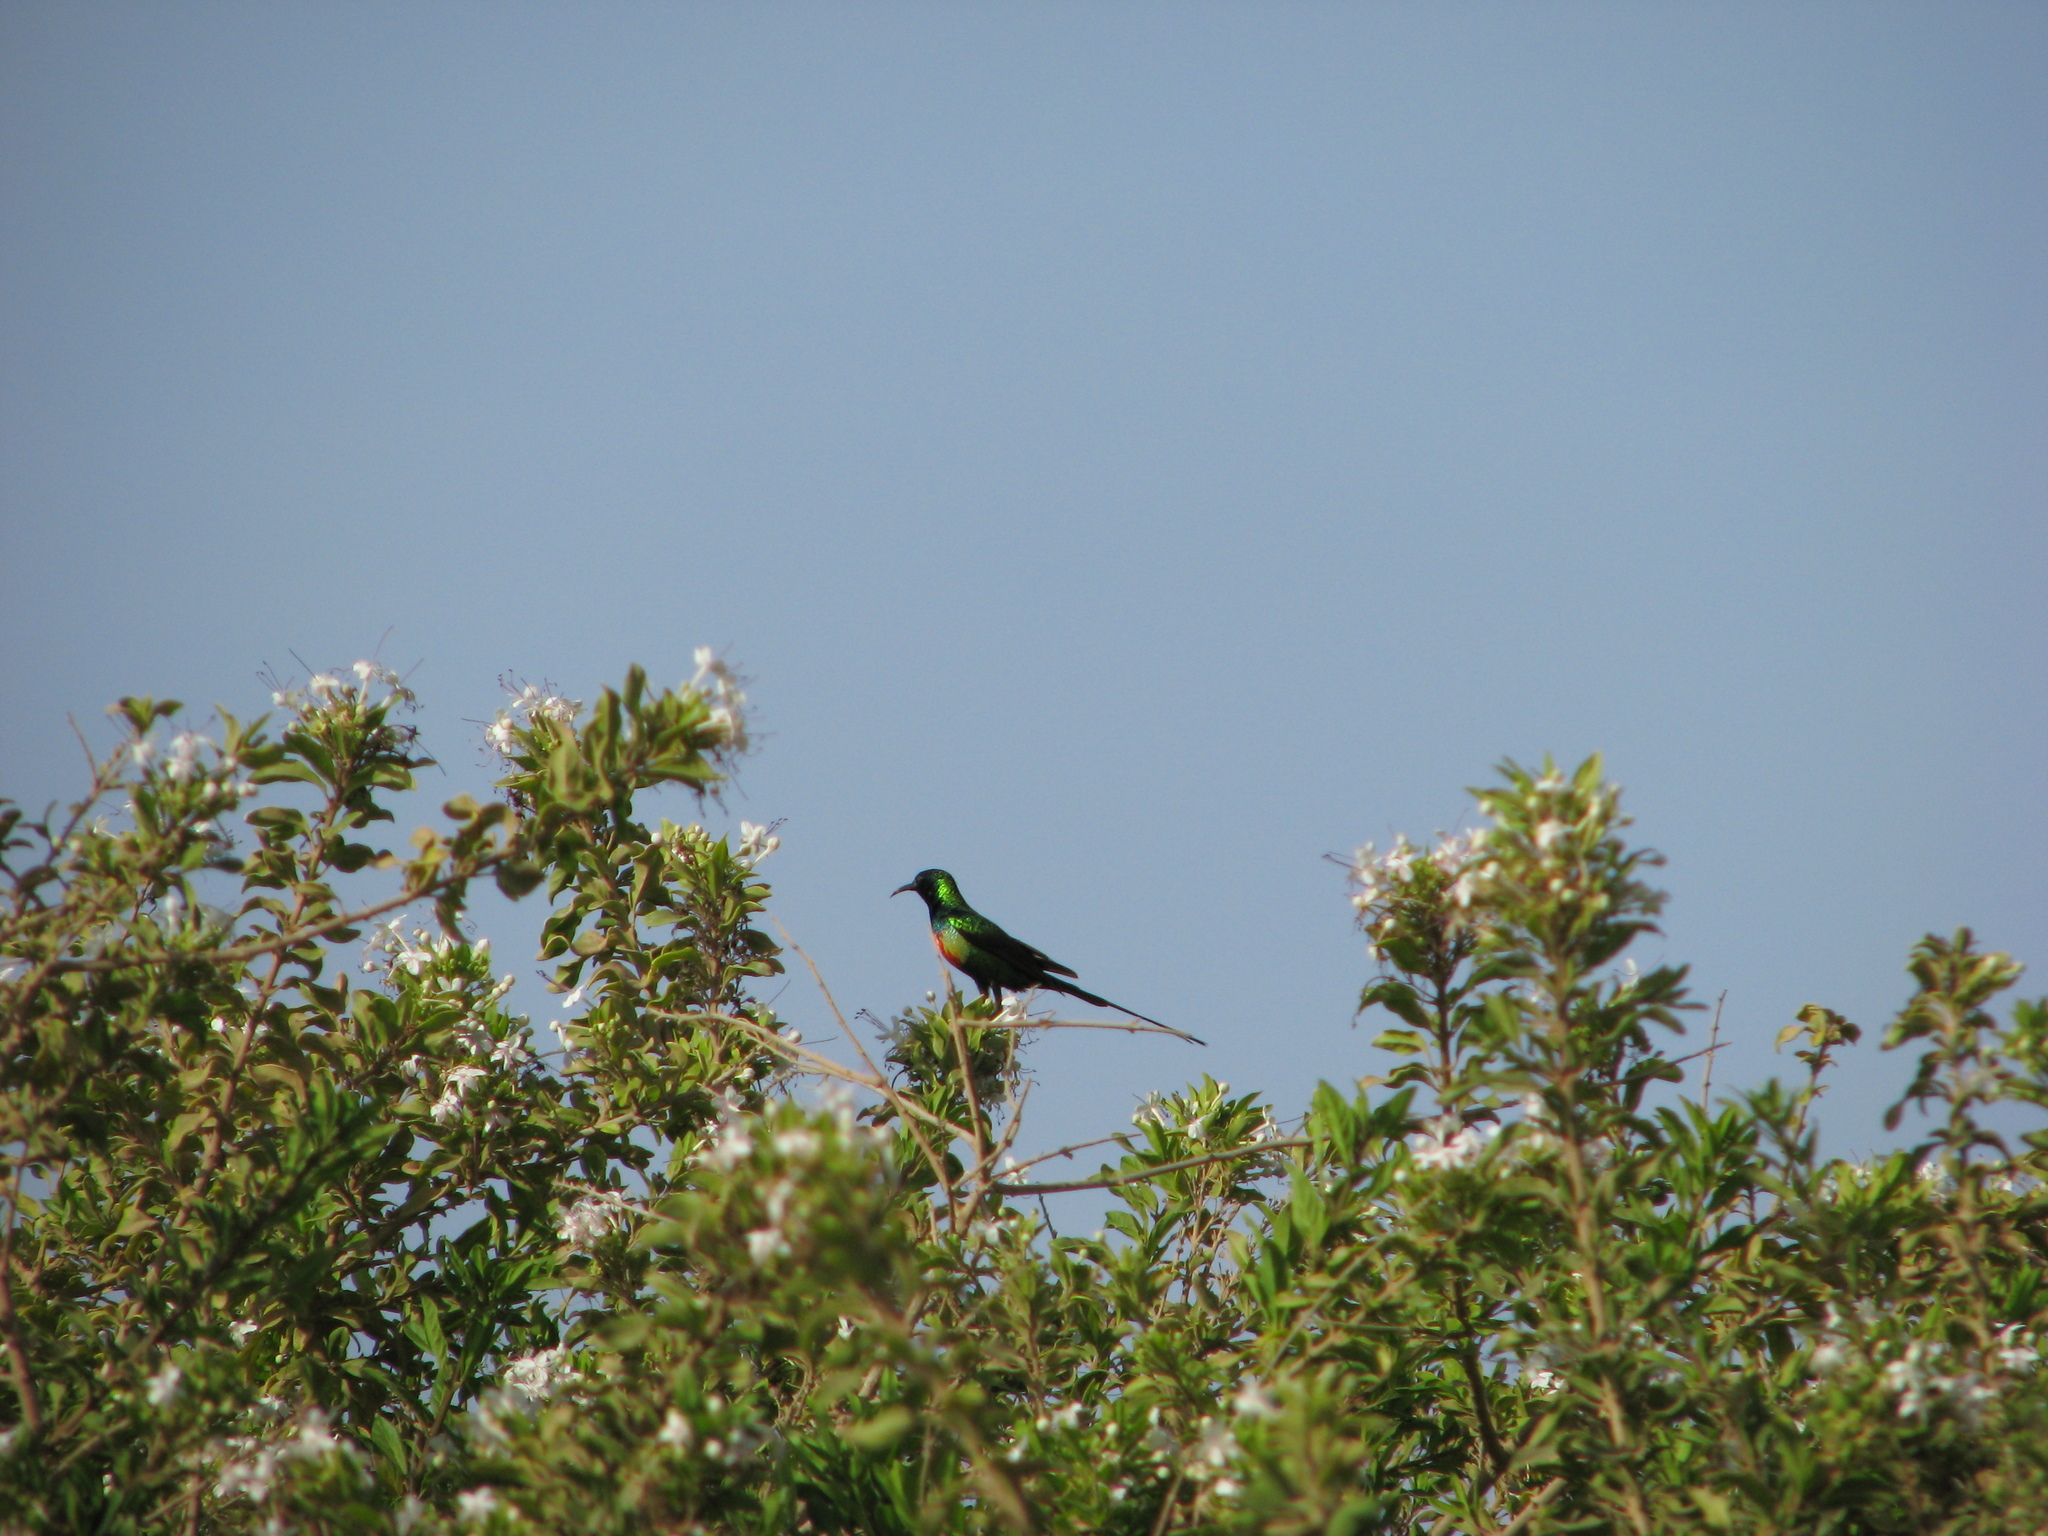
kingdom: Animalia
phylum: Chordata
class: Aves
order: Passeriformes
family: Nectariniidae
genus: Cinnyris
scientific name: Cinnyris pulchellus
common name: Beautiful sunbird
